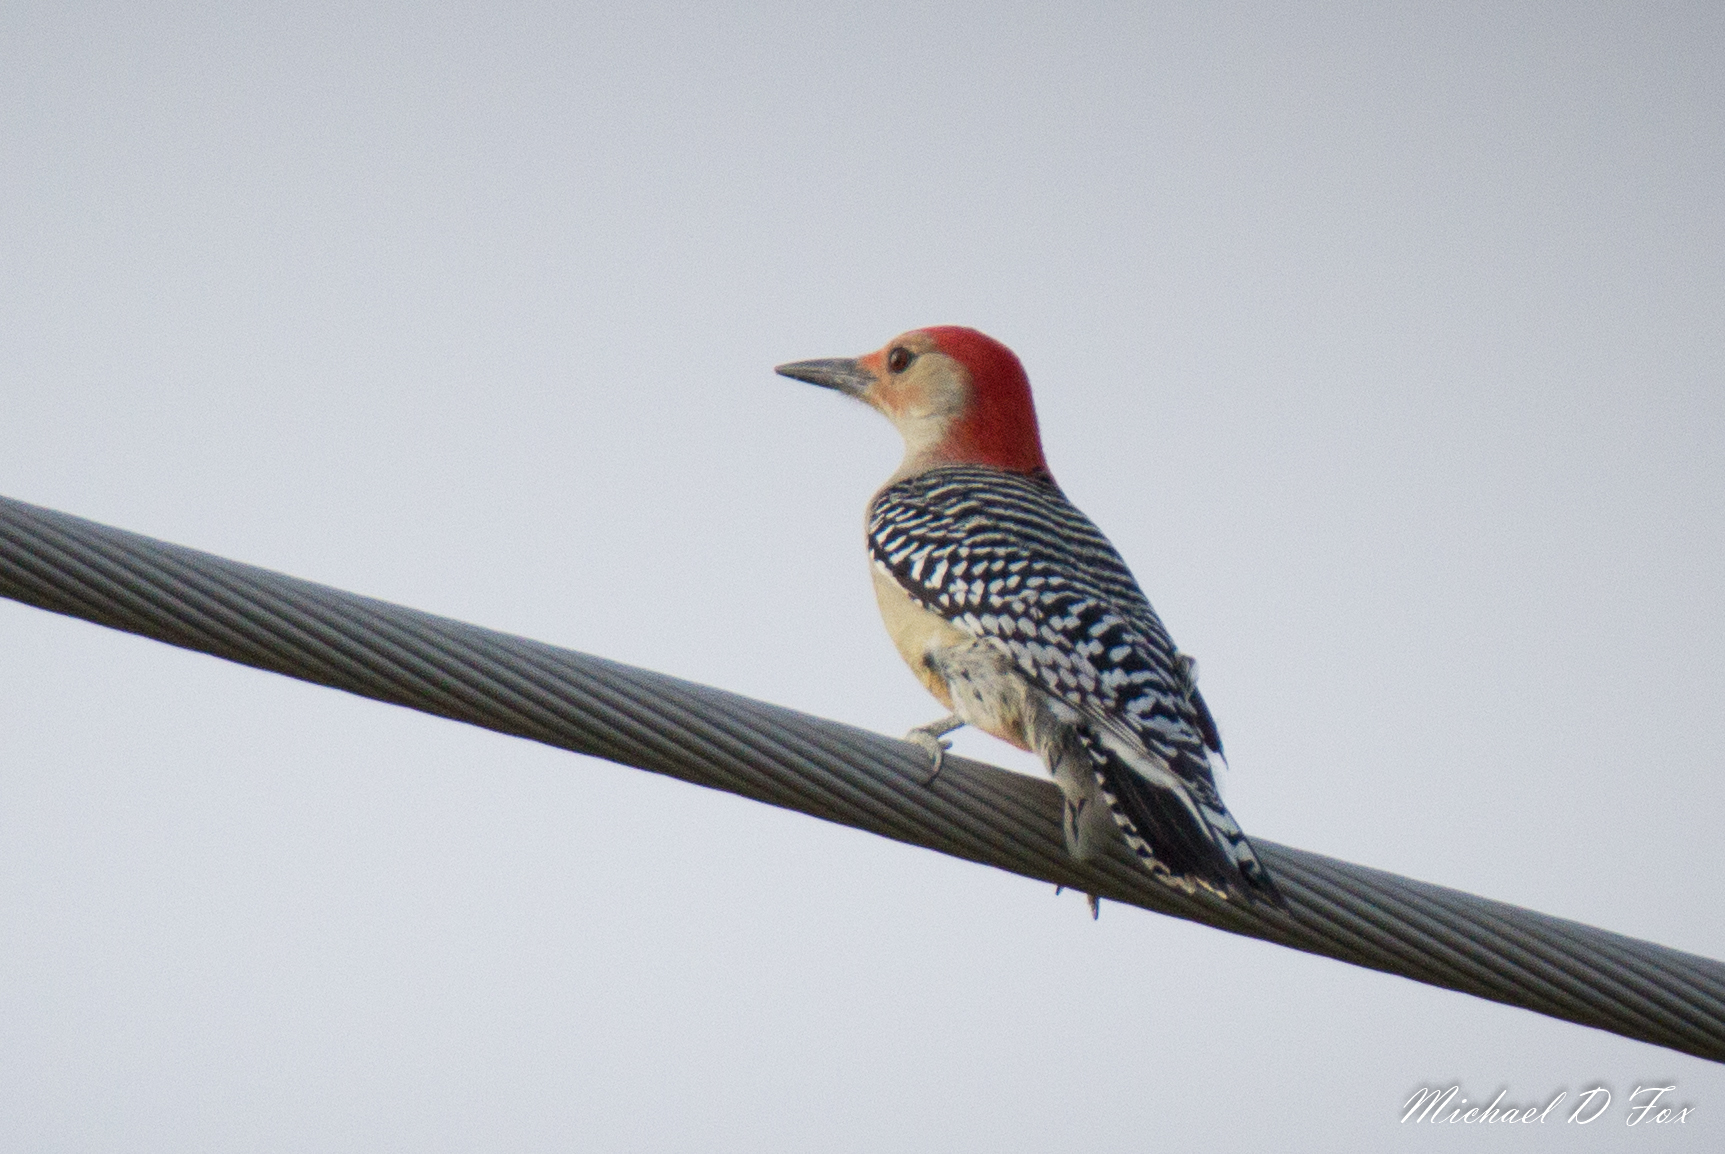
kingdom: Animalia
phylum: Chordata
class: Aves
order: Piciformes
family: Picidae
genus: Melanerpes
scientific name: Melanerpes carolinus
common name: Red-bellied woodpecker
